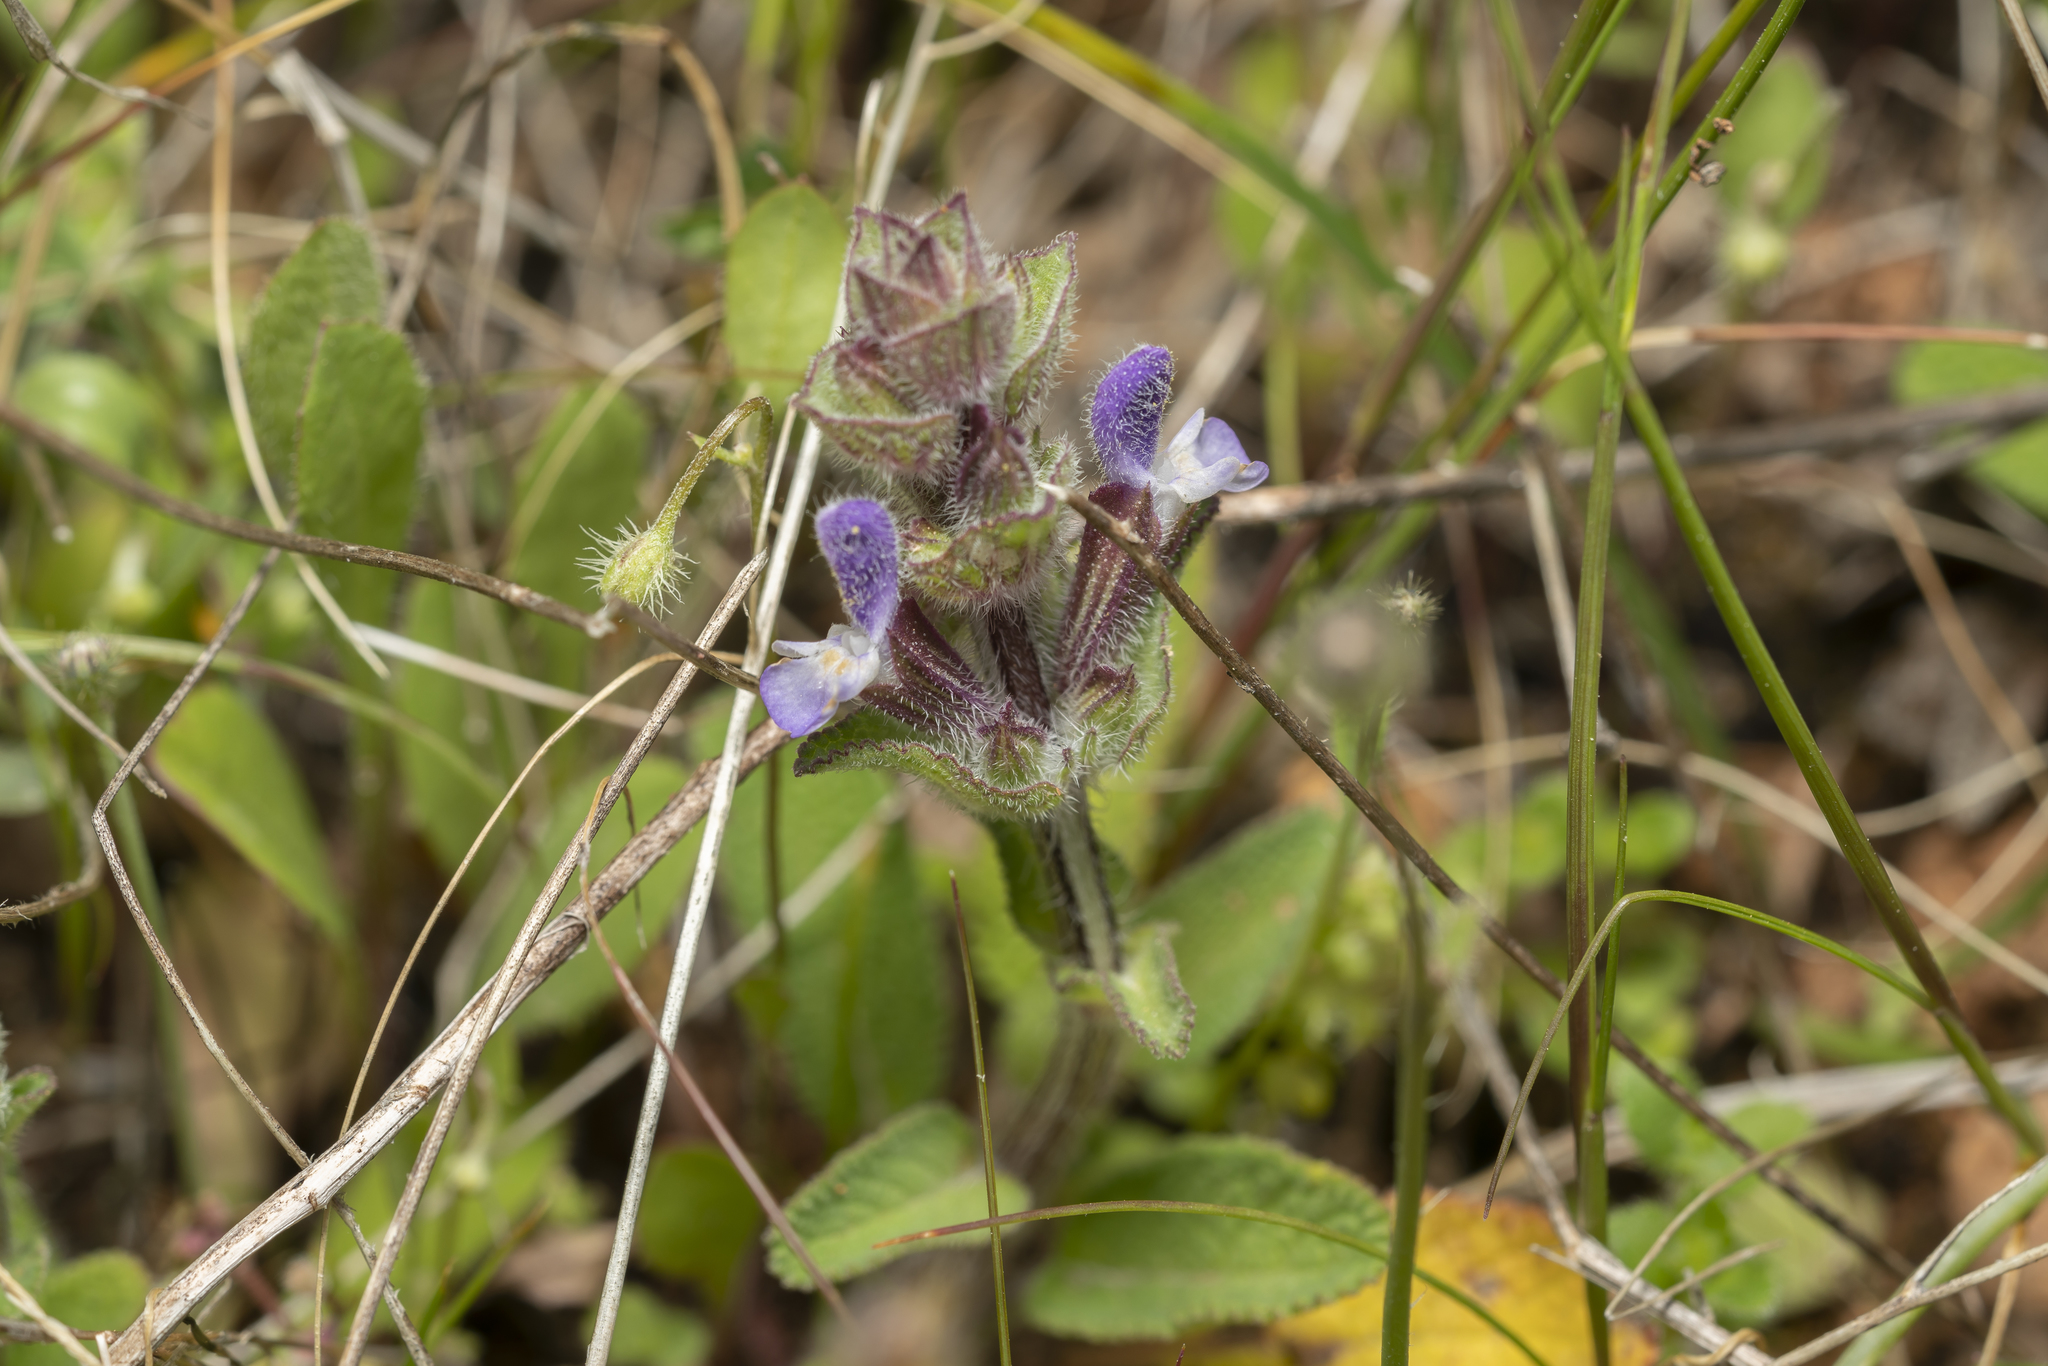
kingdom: Plantae
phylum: Tracheophyta
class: Magnoliopsida
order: Lamiales
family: Lamiaceae
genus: Salvia
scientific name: Salvia viridis
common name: Annual clary
